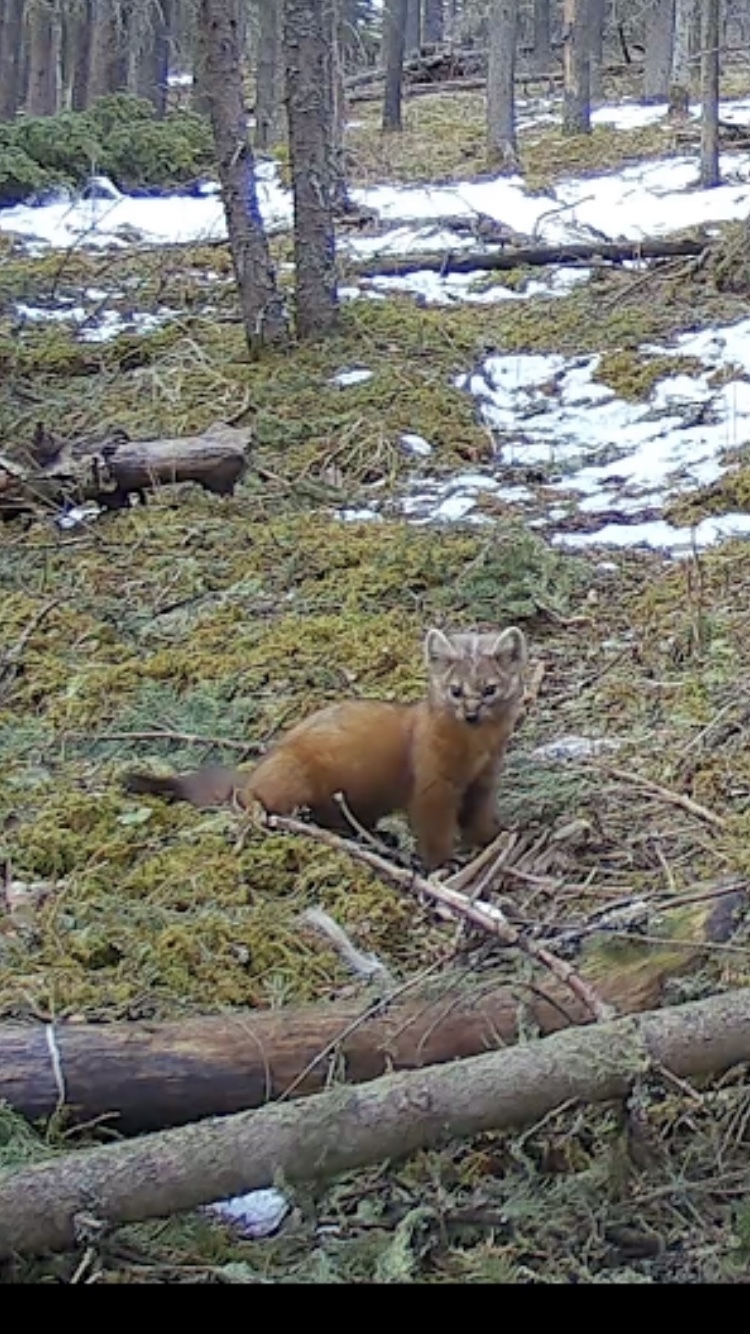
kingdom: Animalia
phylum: Chordata
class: Mammalia
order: Carnivora
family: Mustelidae
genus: Martes
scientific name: Martes americana
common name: American marten
